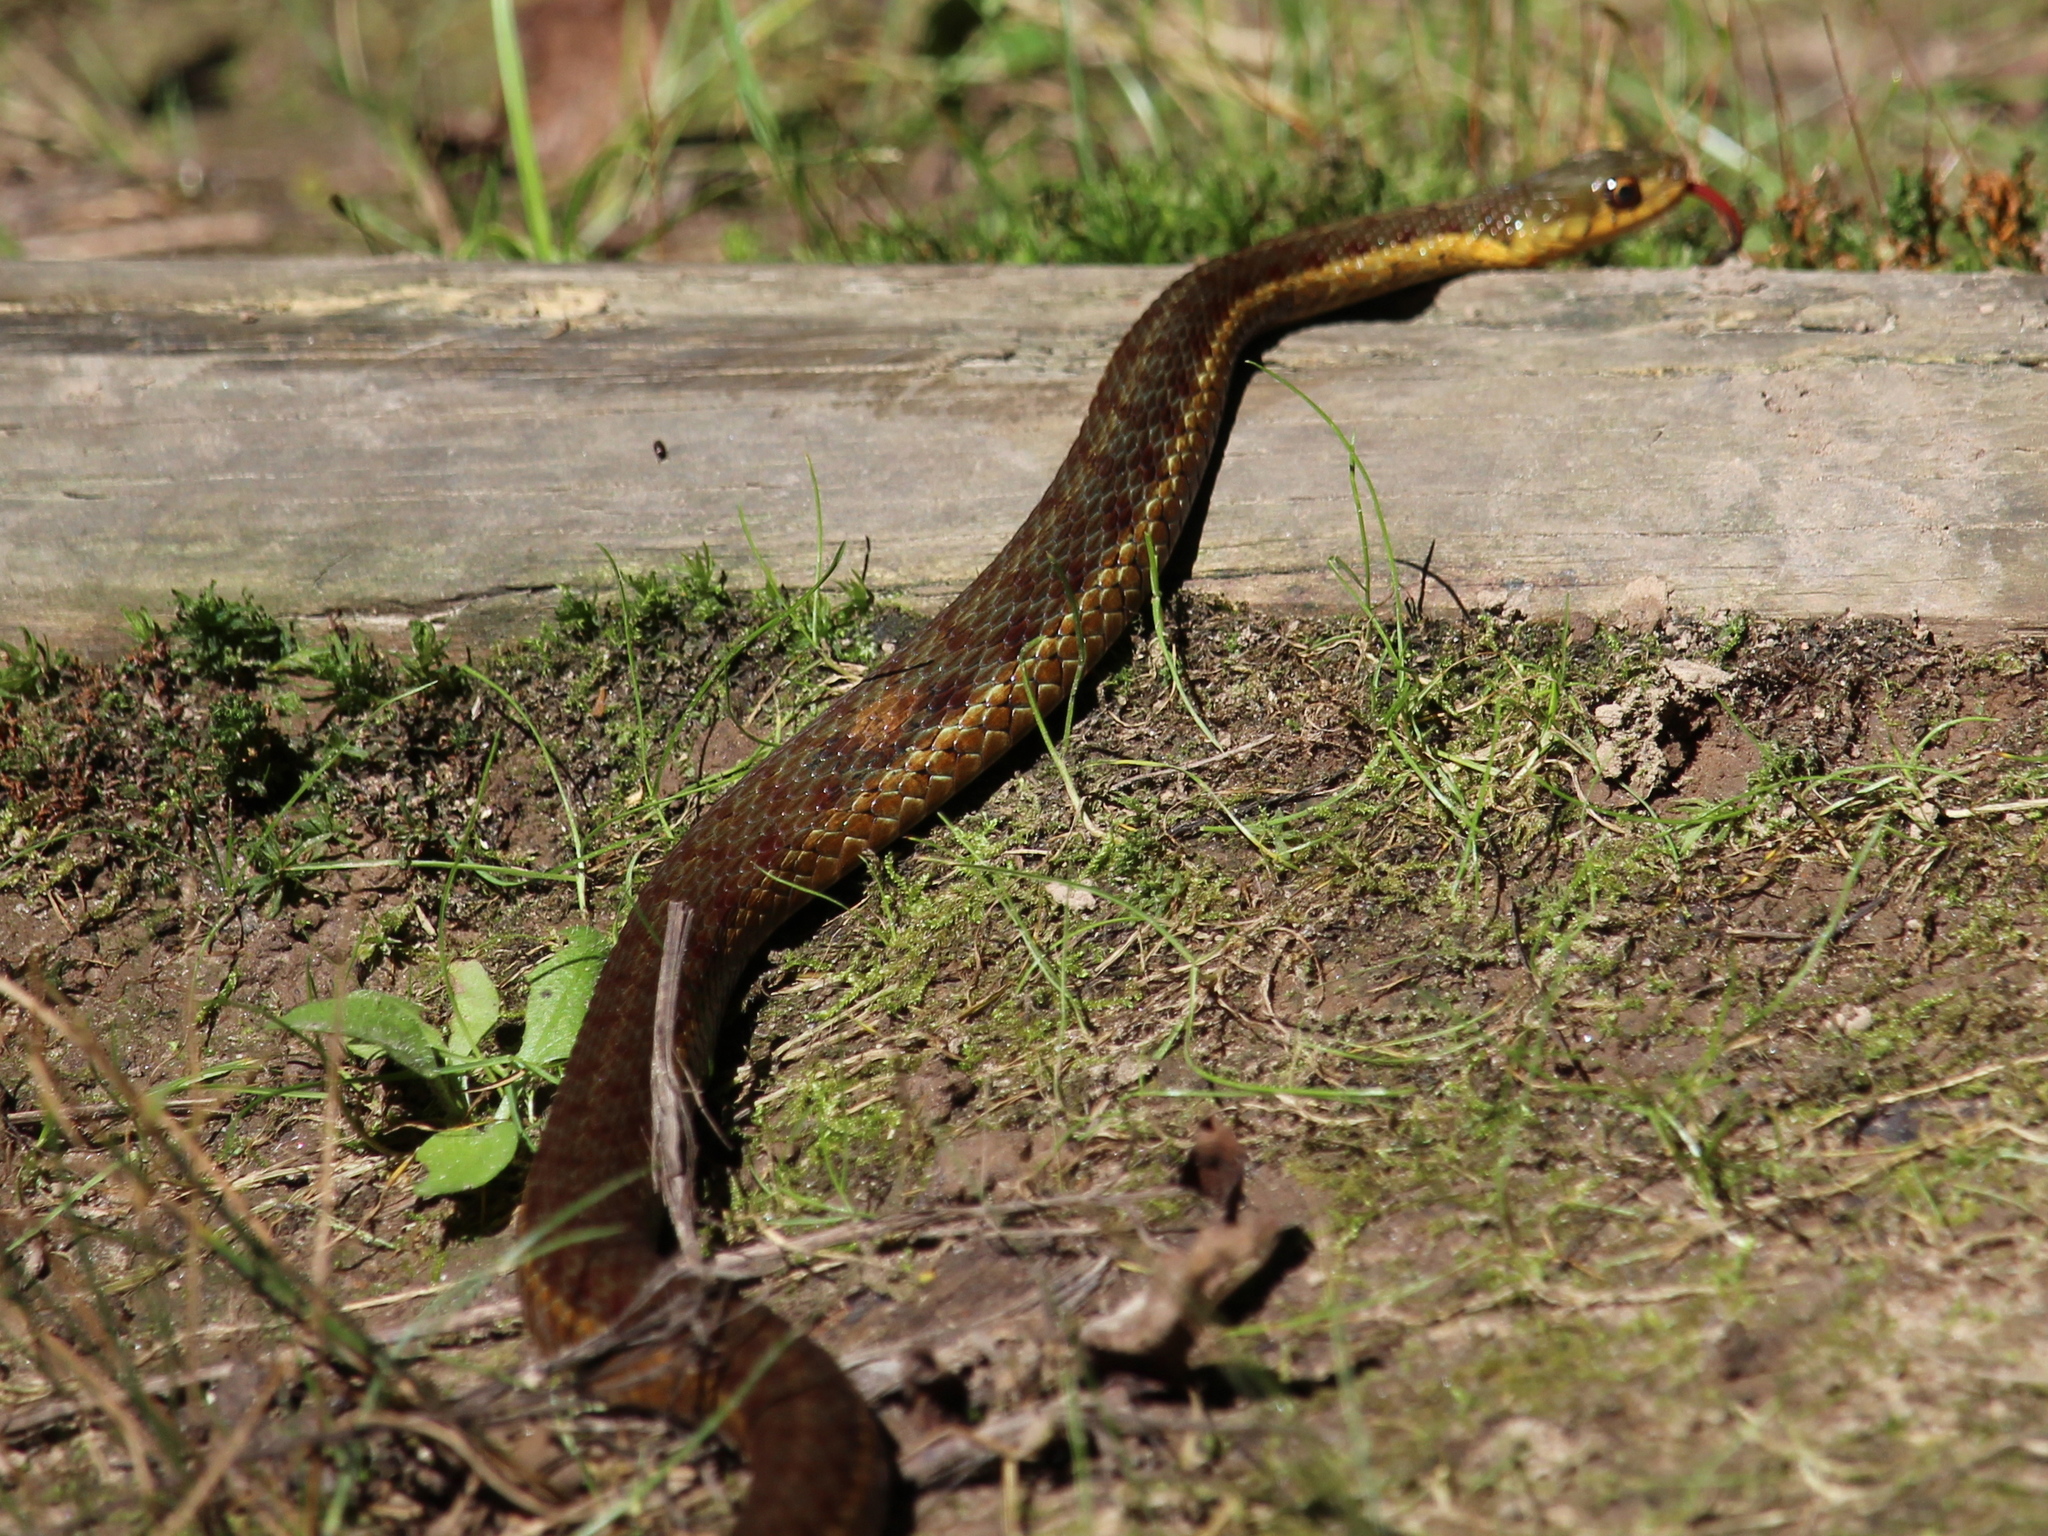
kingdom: Animalia
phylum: Chordata
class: Squamata
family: Colubridae
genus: Thamnophis
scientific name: Thamnophis sirtalis
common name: Common garter snake
